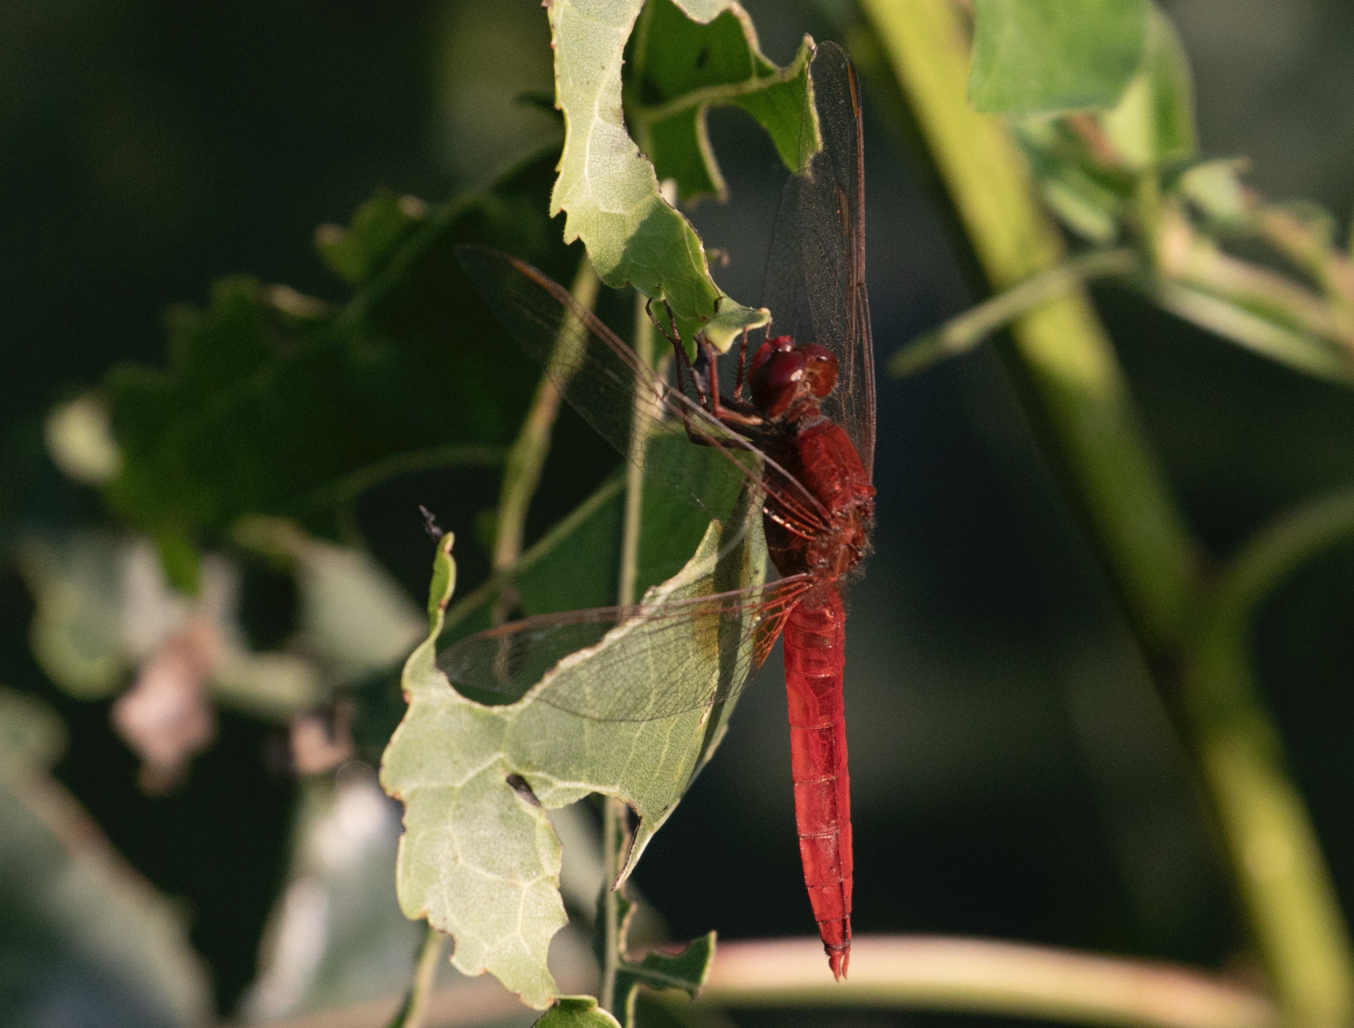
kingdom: Animalia
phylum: Arthropoda
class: Insecta
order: Odonata
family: Libellulidae
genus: Crocothemis
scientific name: Crocothemis erythraea
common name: Scarlet dragonfly
